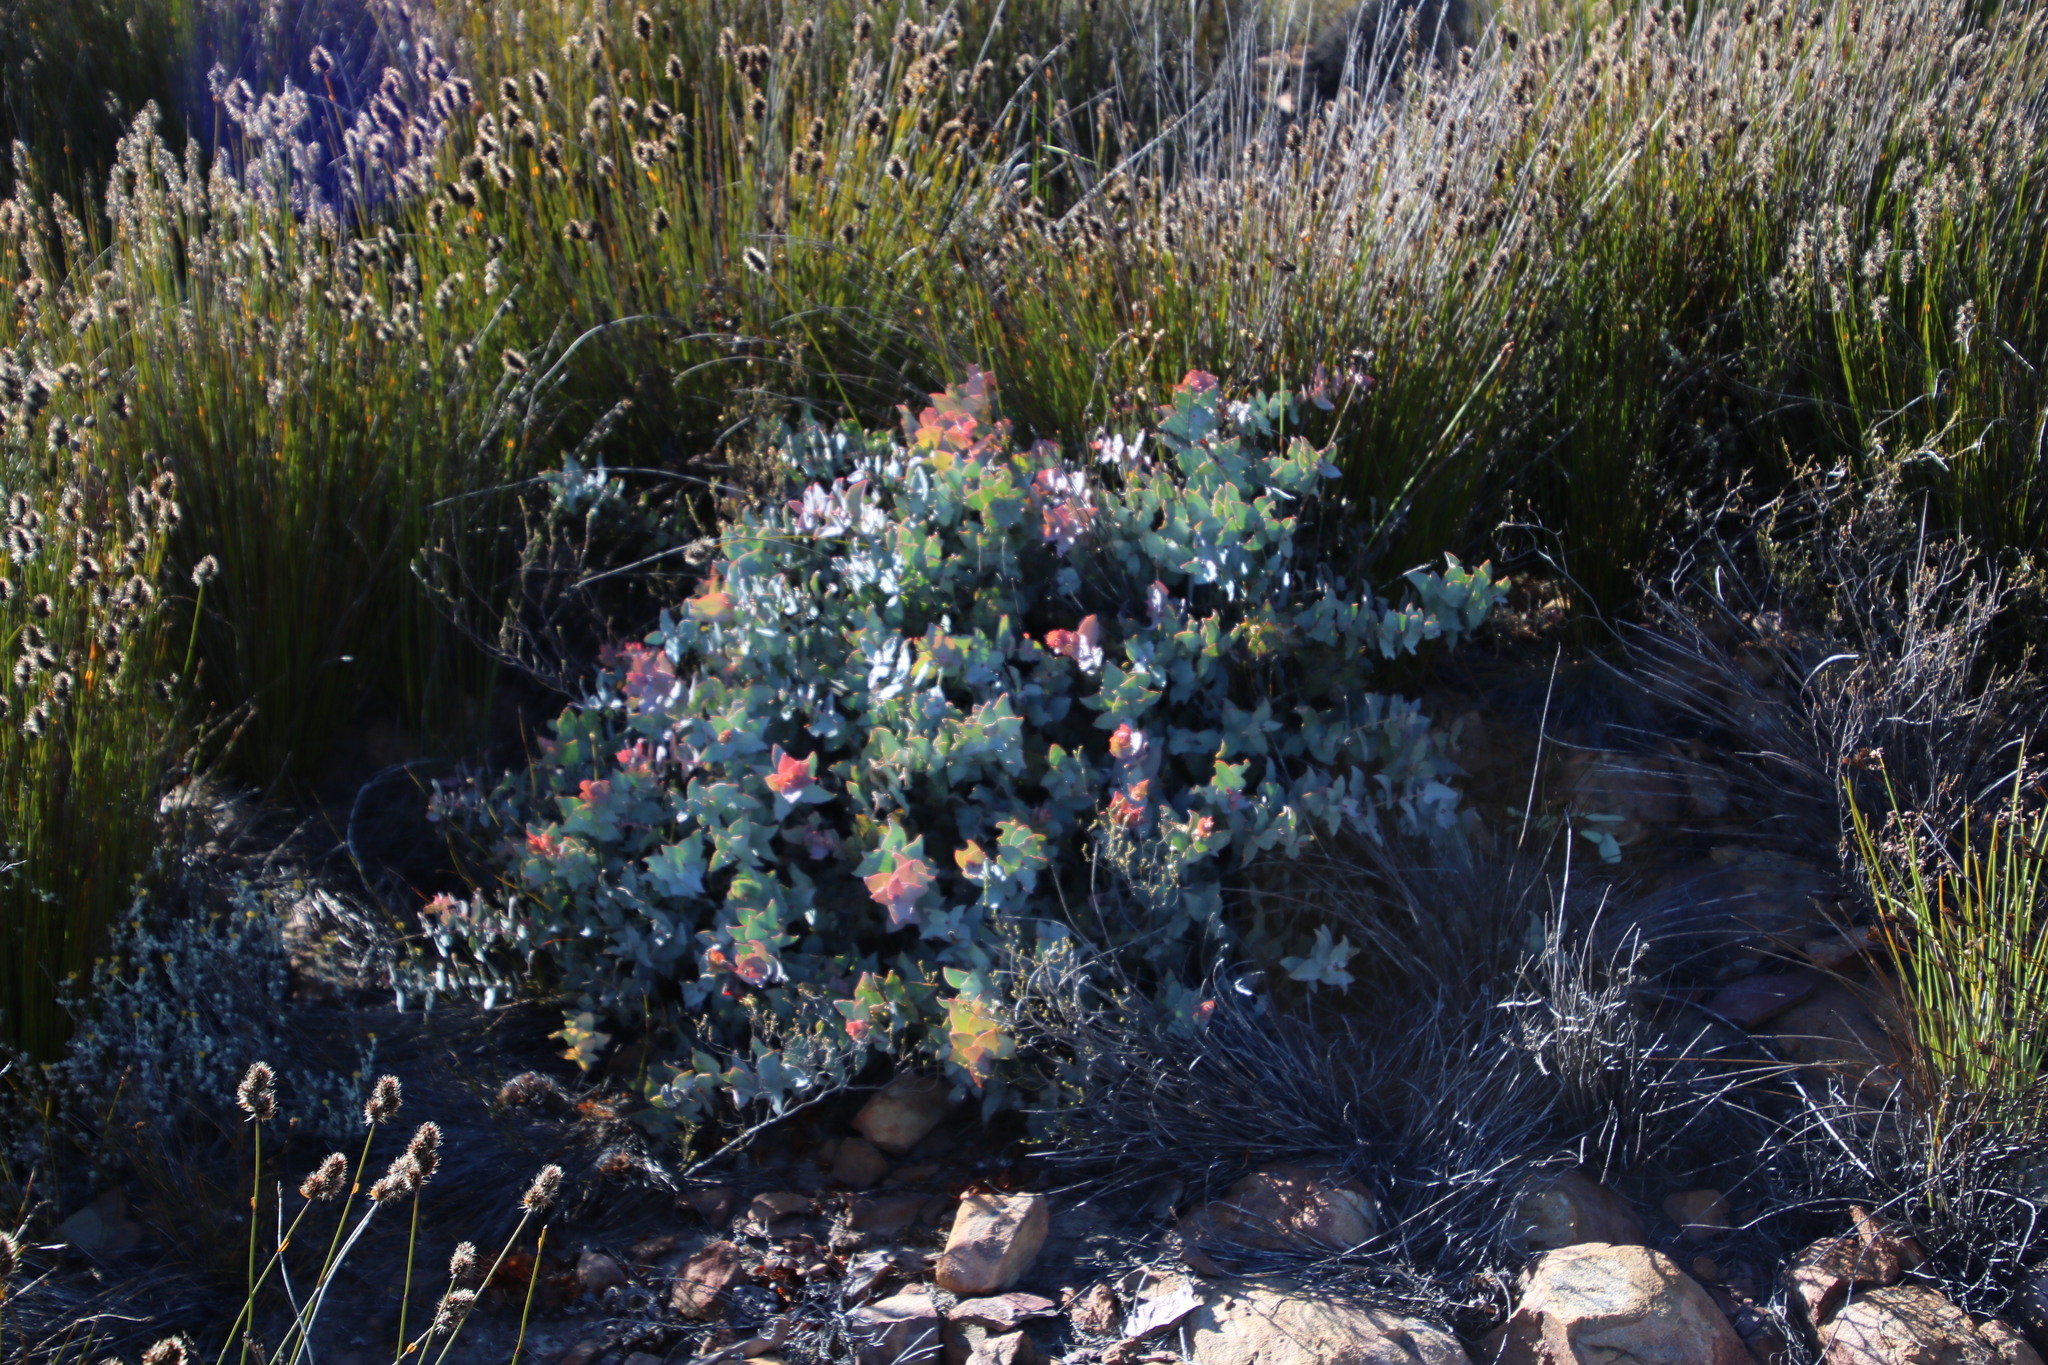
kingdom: Plantae
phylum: Tracheophyta
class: Magnoliopsida
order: Proteales
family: Proteaceae
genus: Protea
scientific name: Protea amplexicaulis
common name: Clasping-leaf sugarbush
